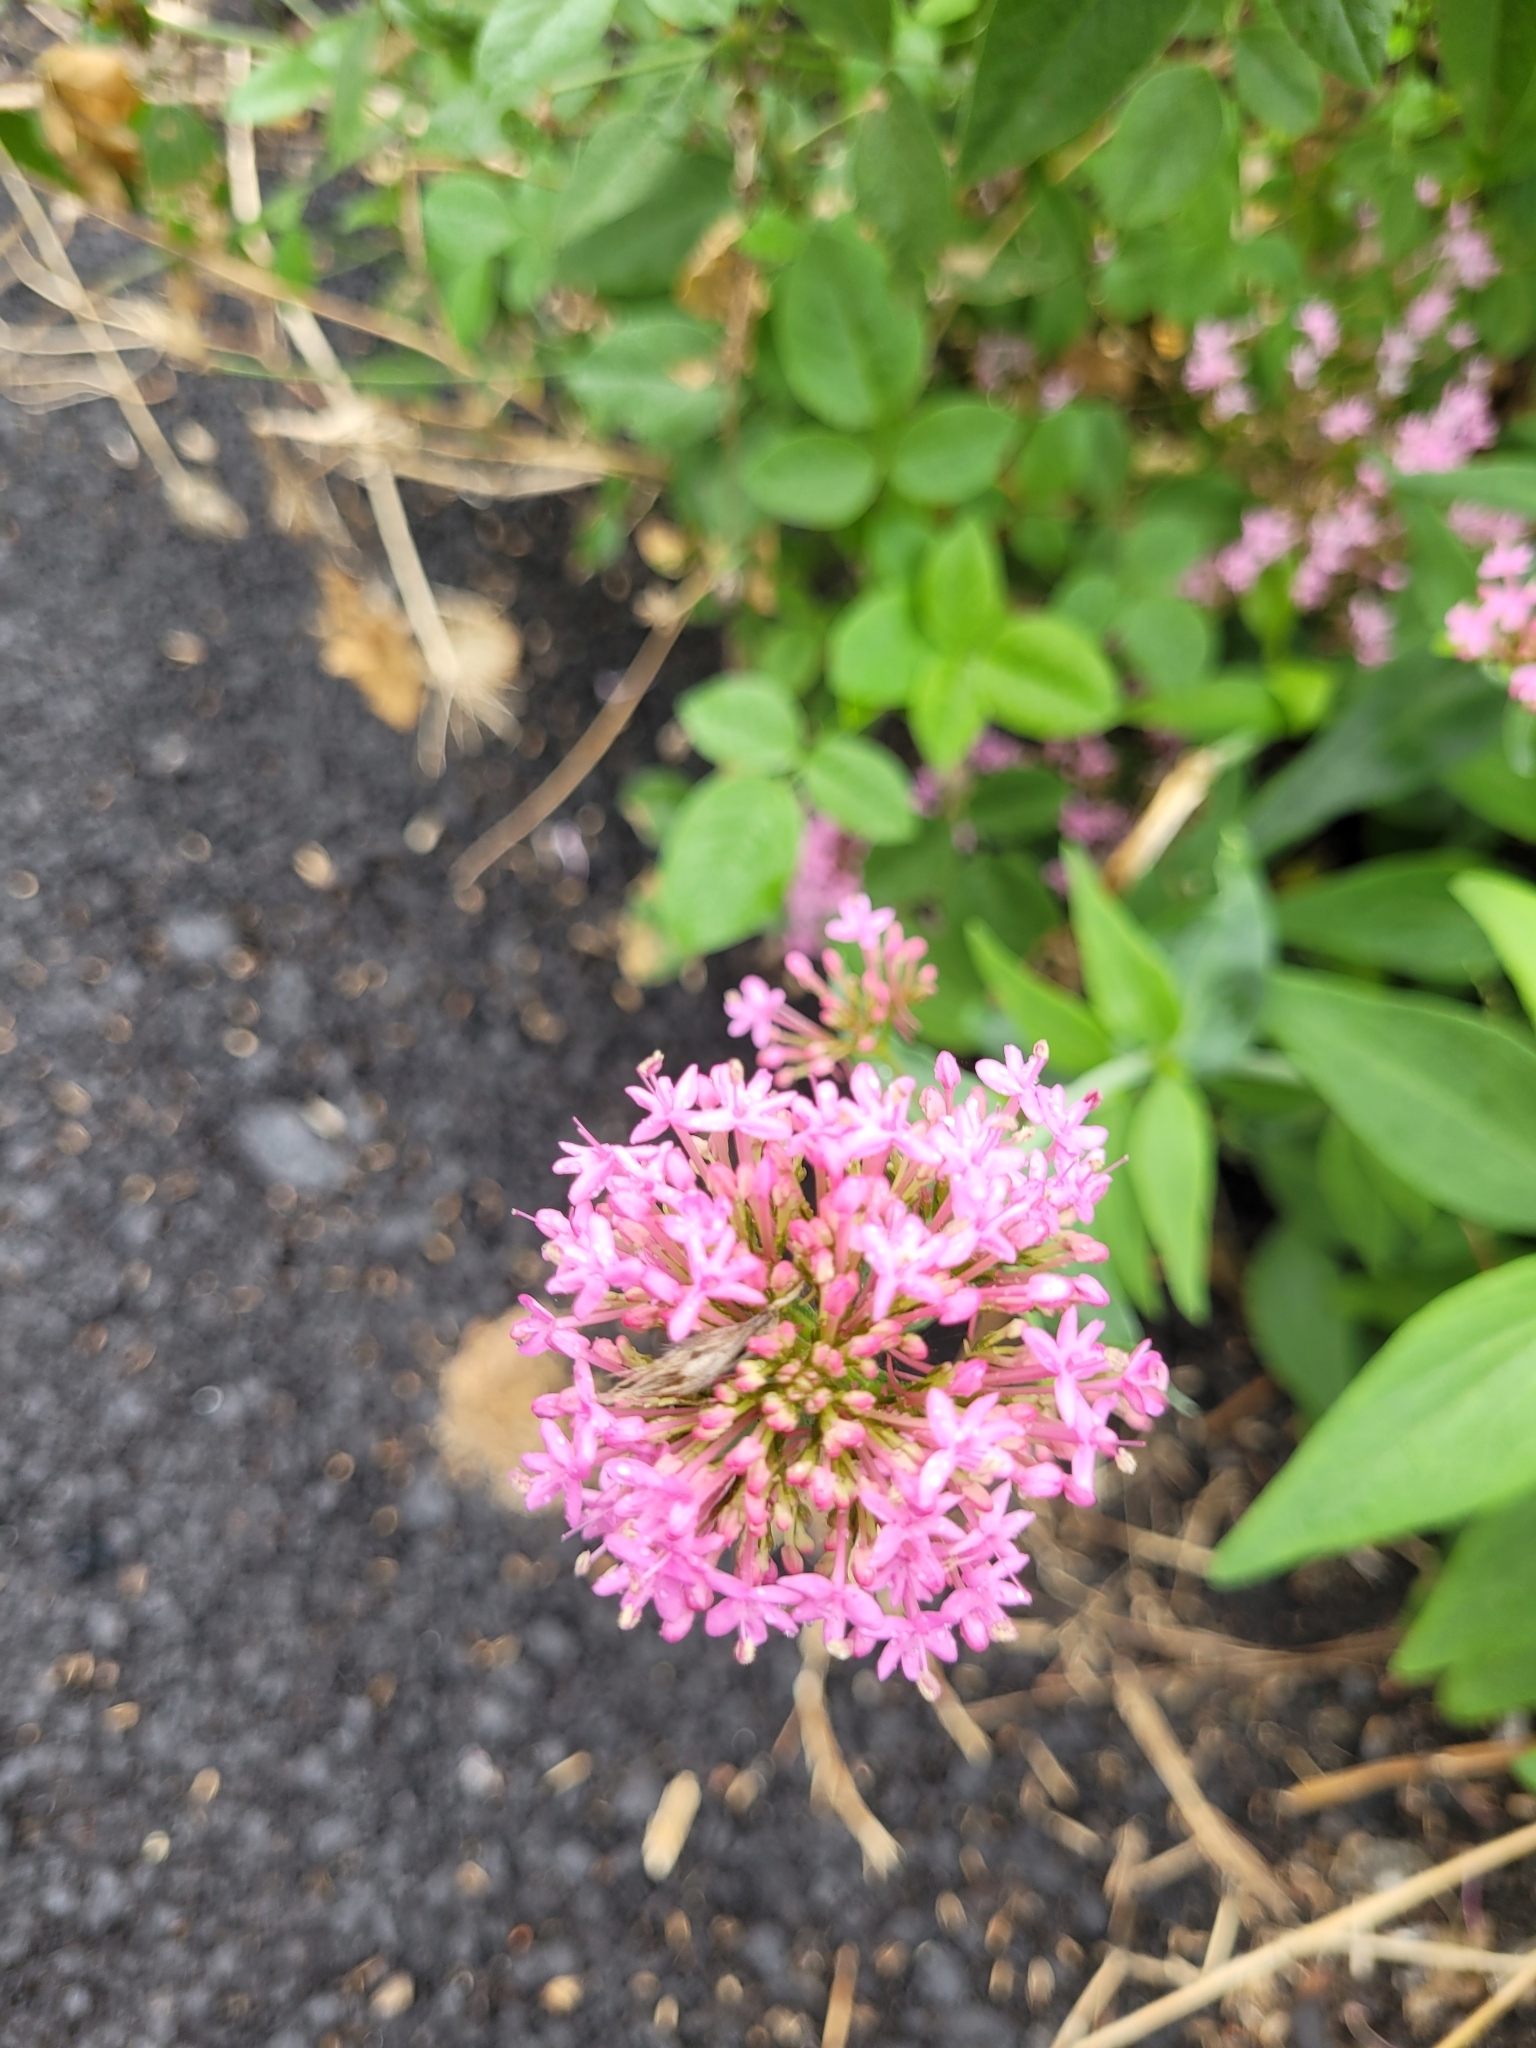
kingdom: Plantae
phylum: Tracheophyta
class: Magnoliopsida
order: Dipsacales
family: Caprifoliaceae
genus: Centranthus
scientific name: Centranthus ruber
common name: Red valerian
